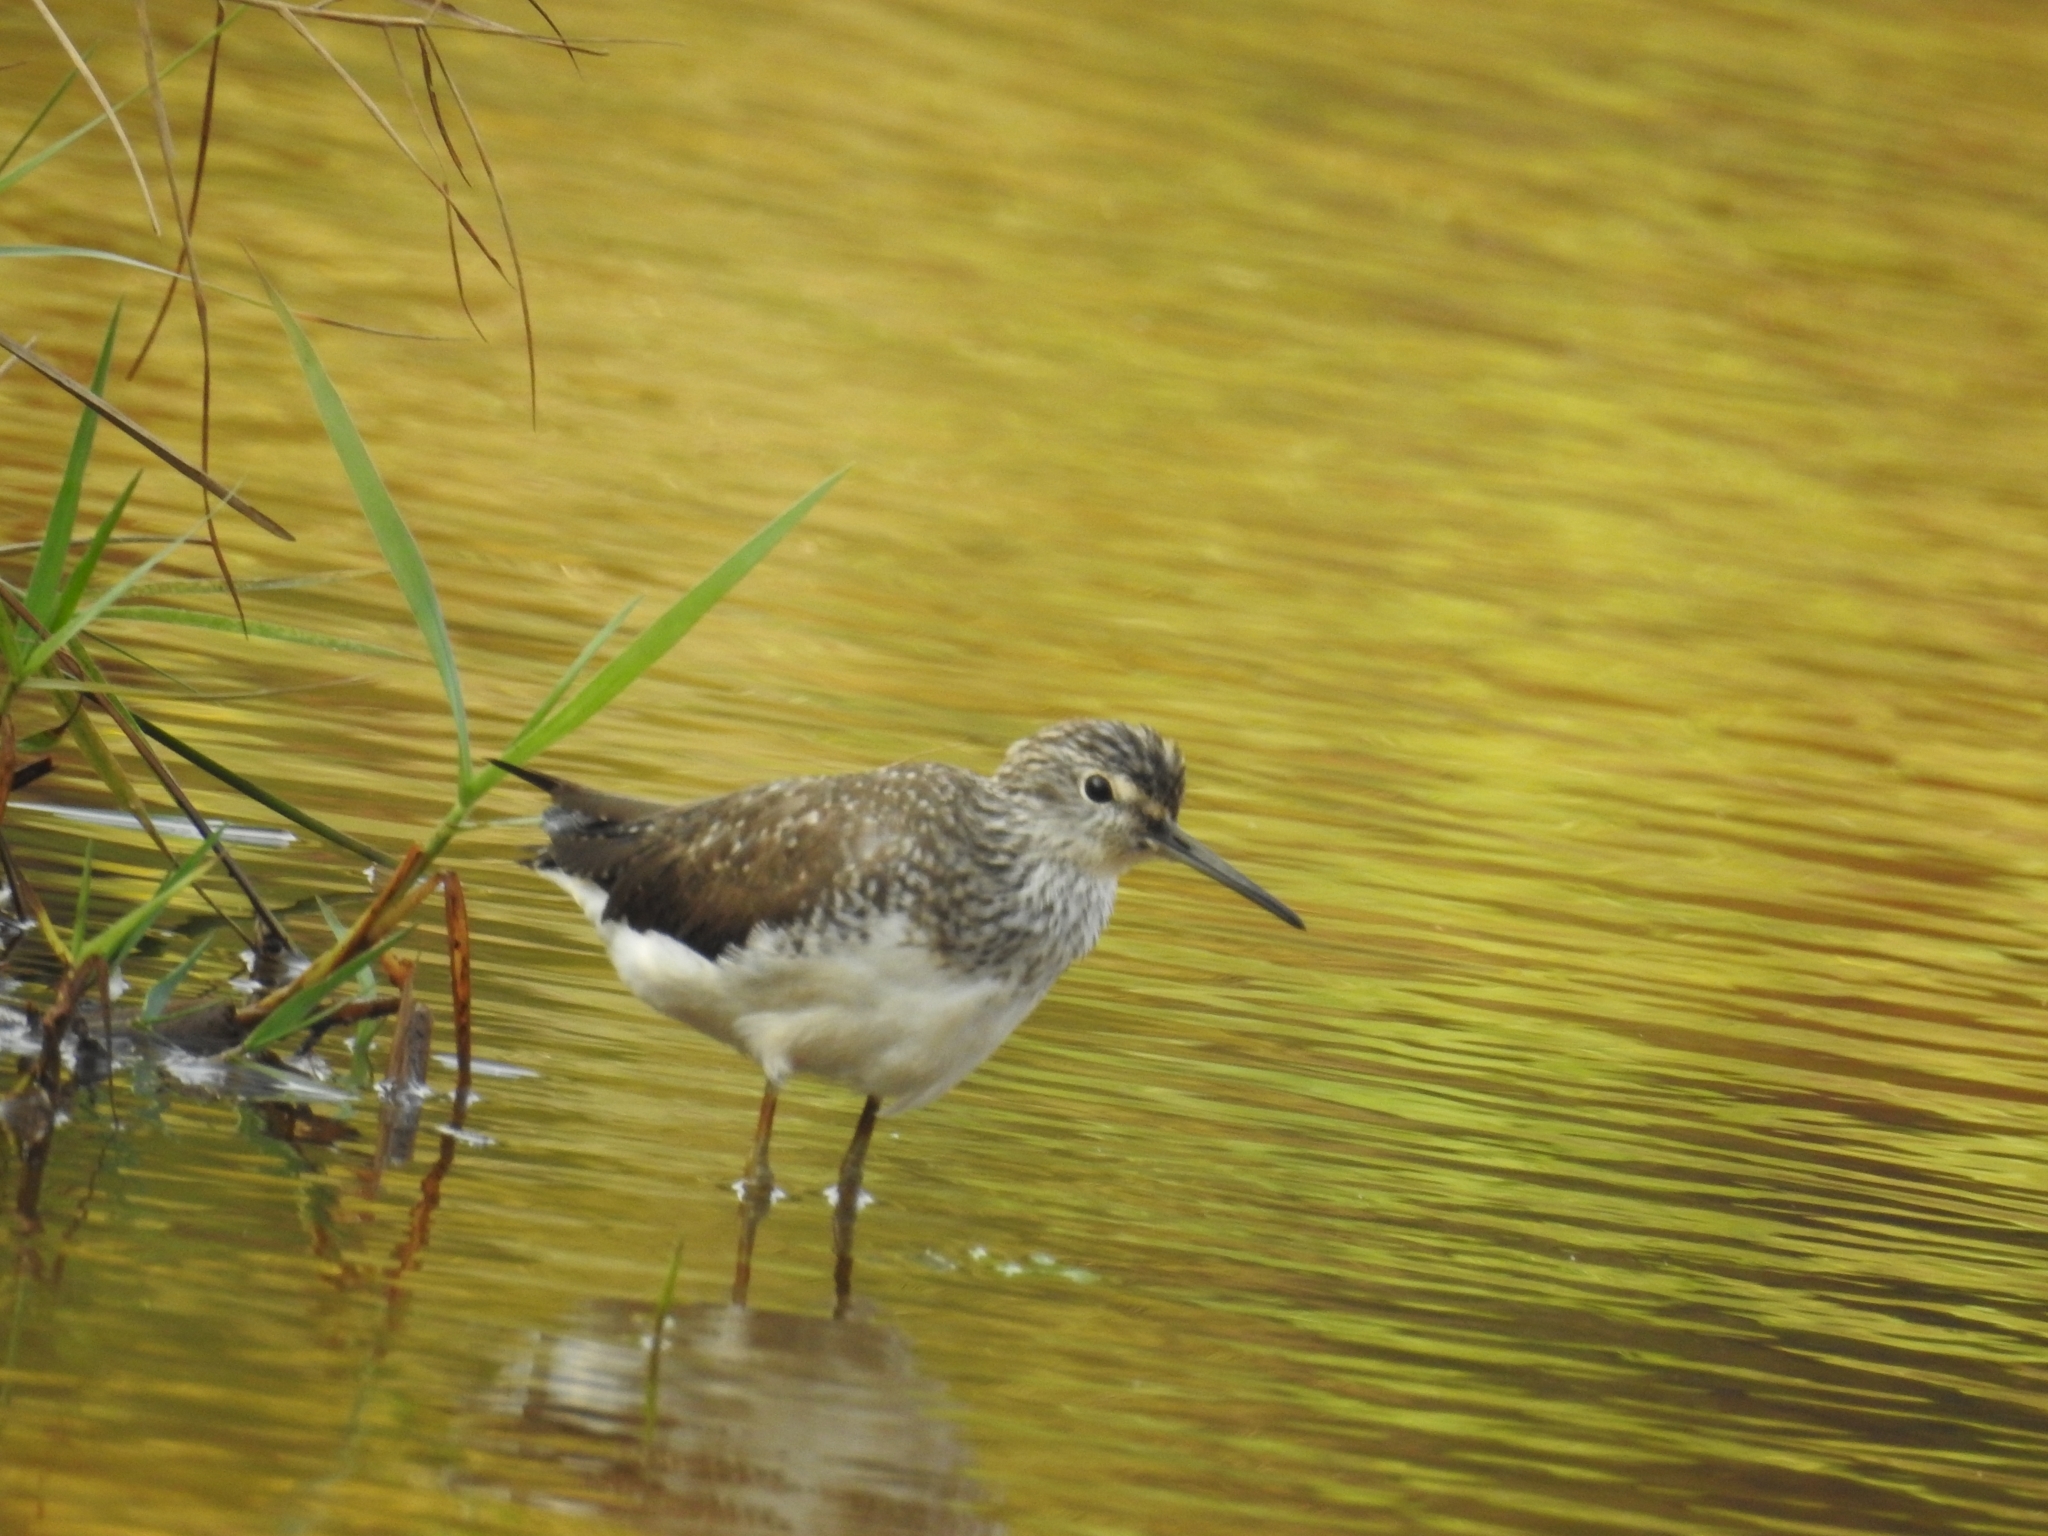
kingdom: Animalia
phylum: Chordata
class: Aves
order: Charadriiformes
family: Scolopacidae
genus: Tringa
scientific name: Tringa ochropus
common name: Green sandpiper
